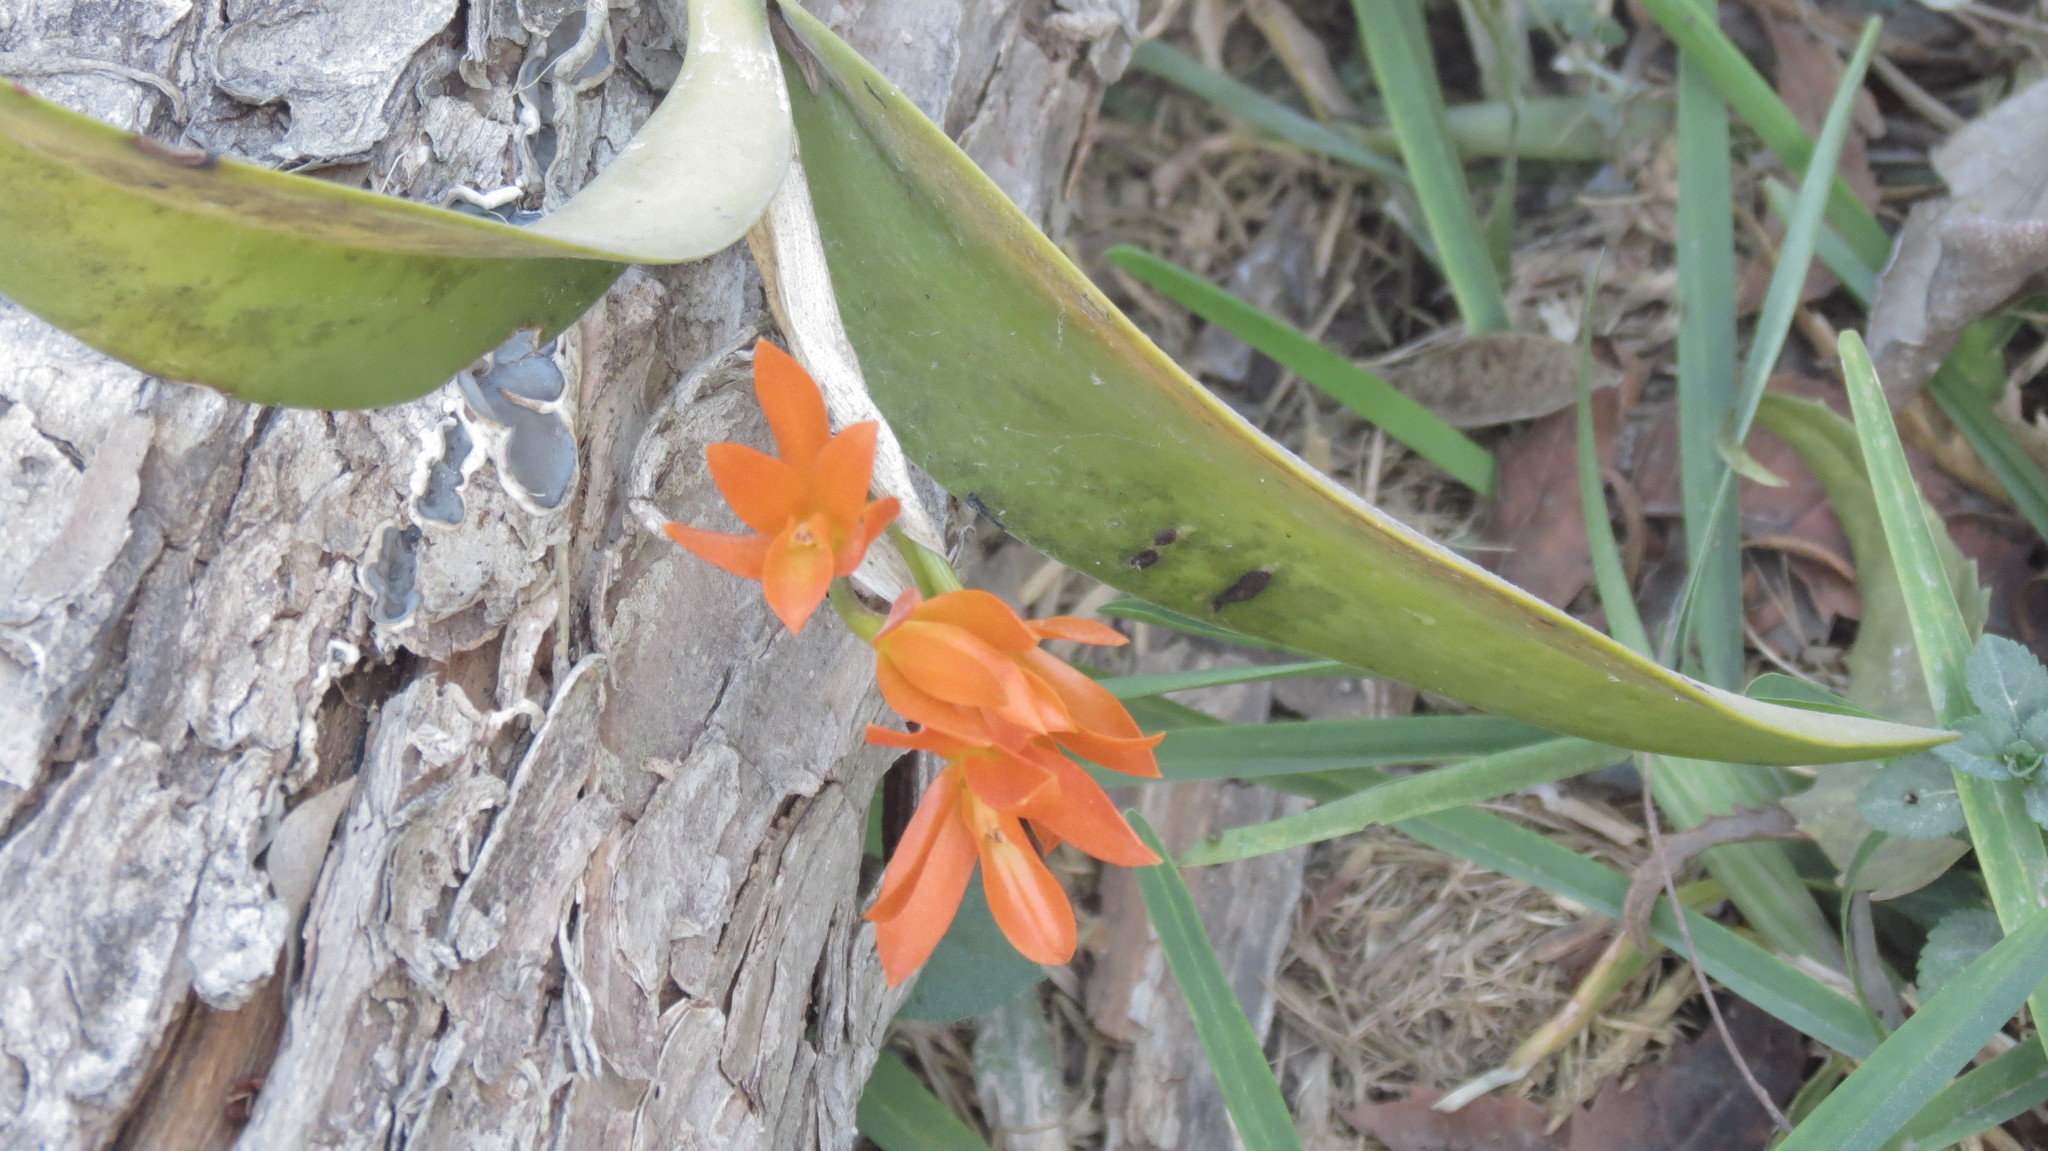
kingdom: Plantae
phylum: Tracheophyta
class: Liliopsida
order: Asparagales
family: Orchidaceae
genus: Guarianthe
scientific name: Guarianthe aurantiaca
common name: Orange cattleya
